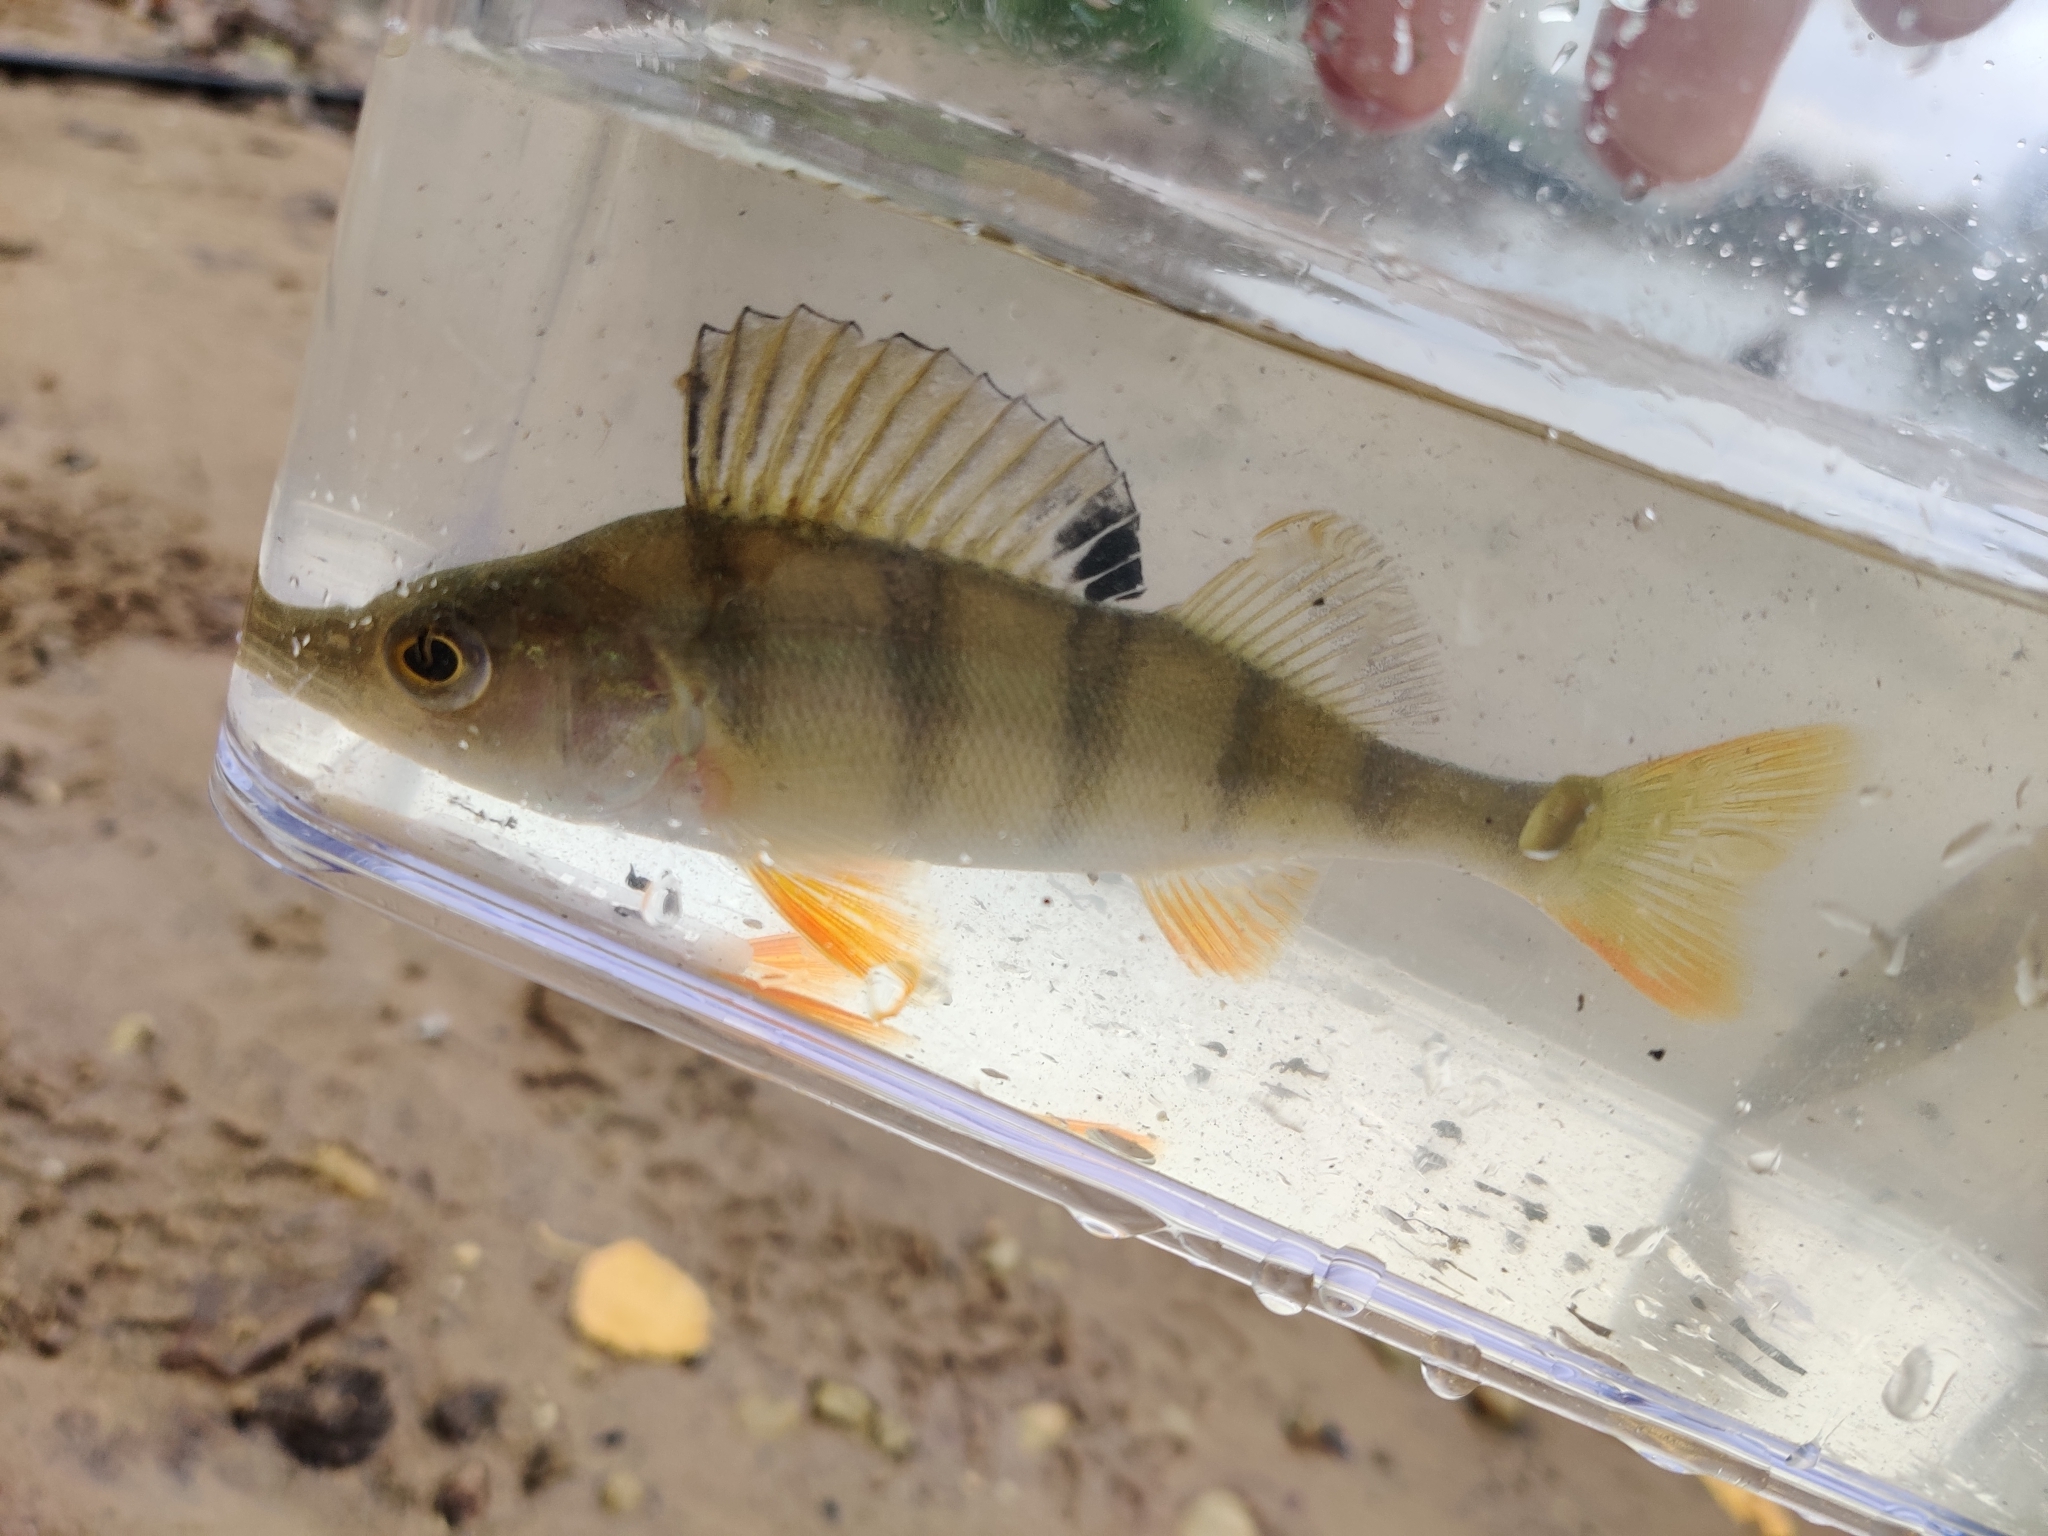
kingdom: Animalia
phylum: Chordata
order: Perciformes
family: Percidae
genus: Perca
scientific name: Perca fluviatilis
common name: Perch
